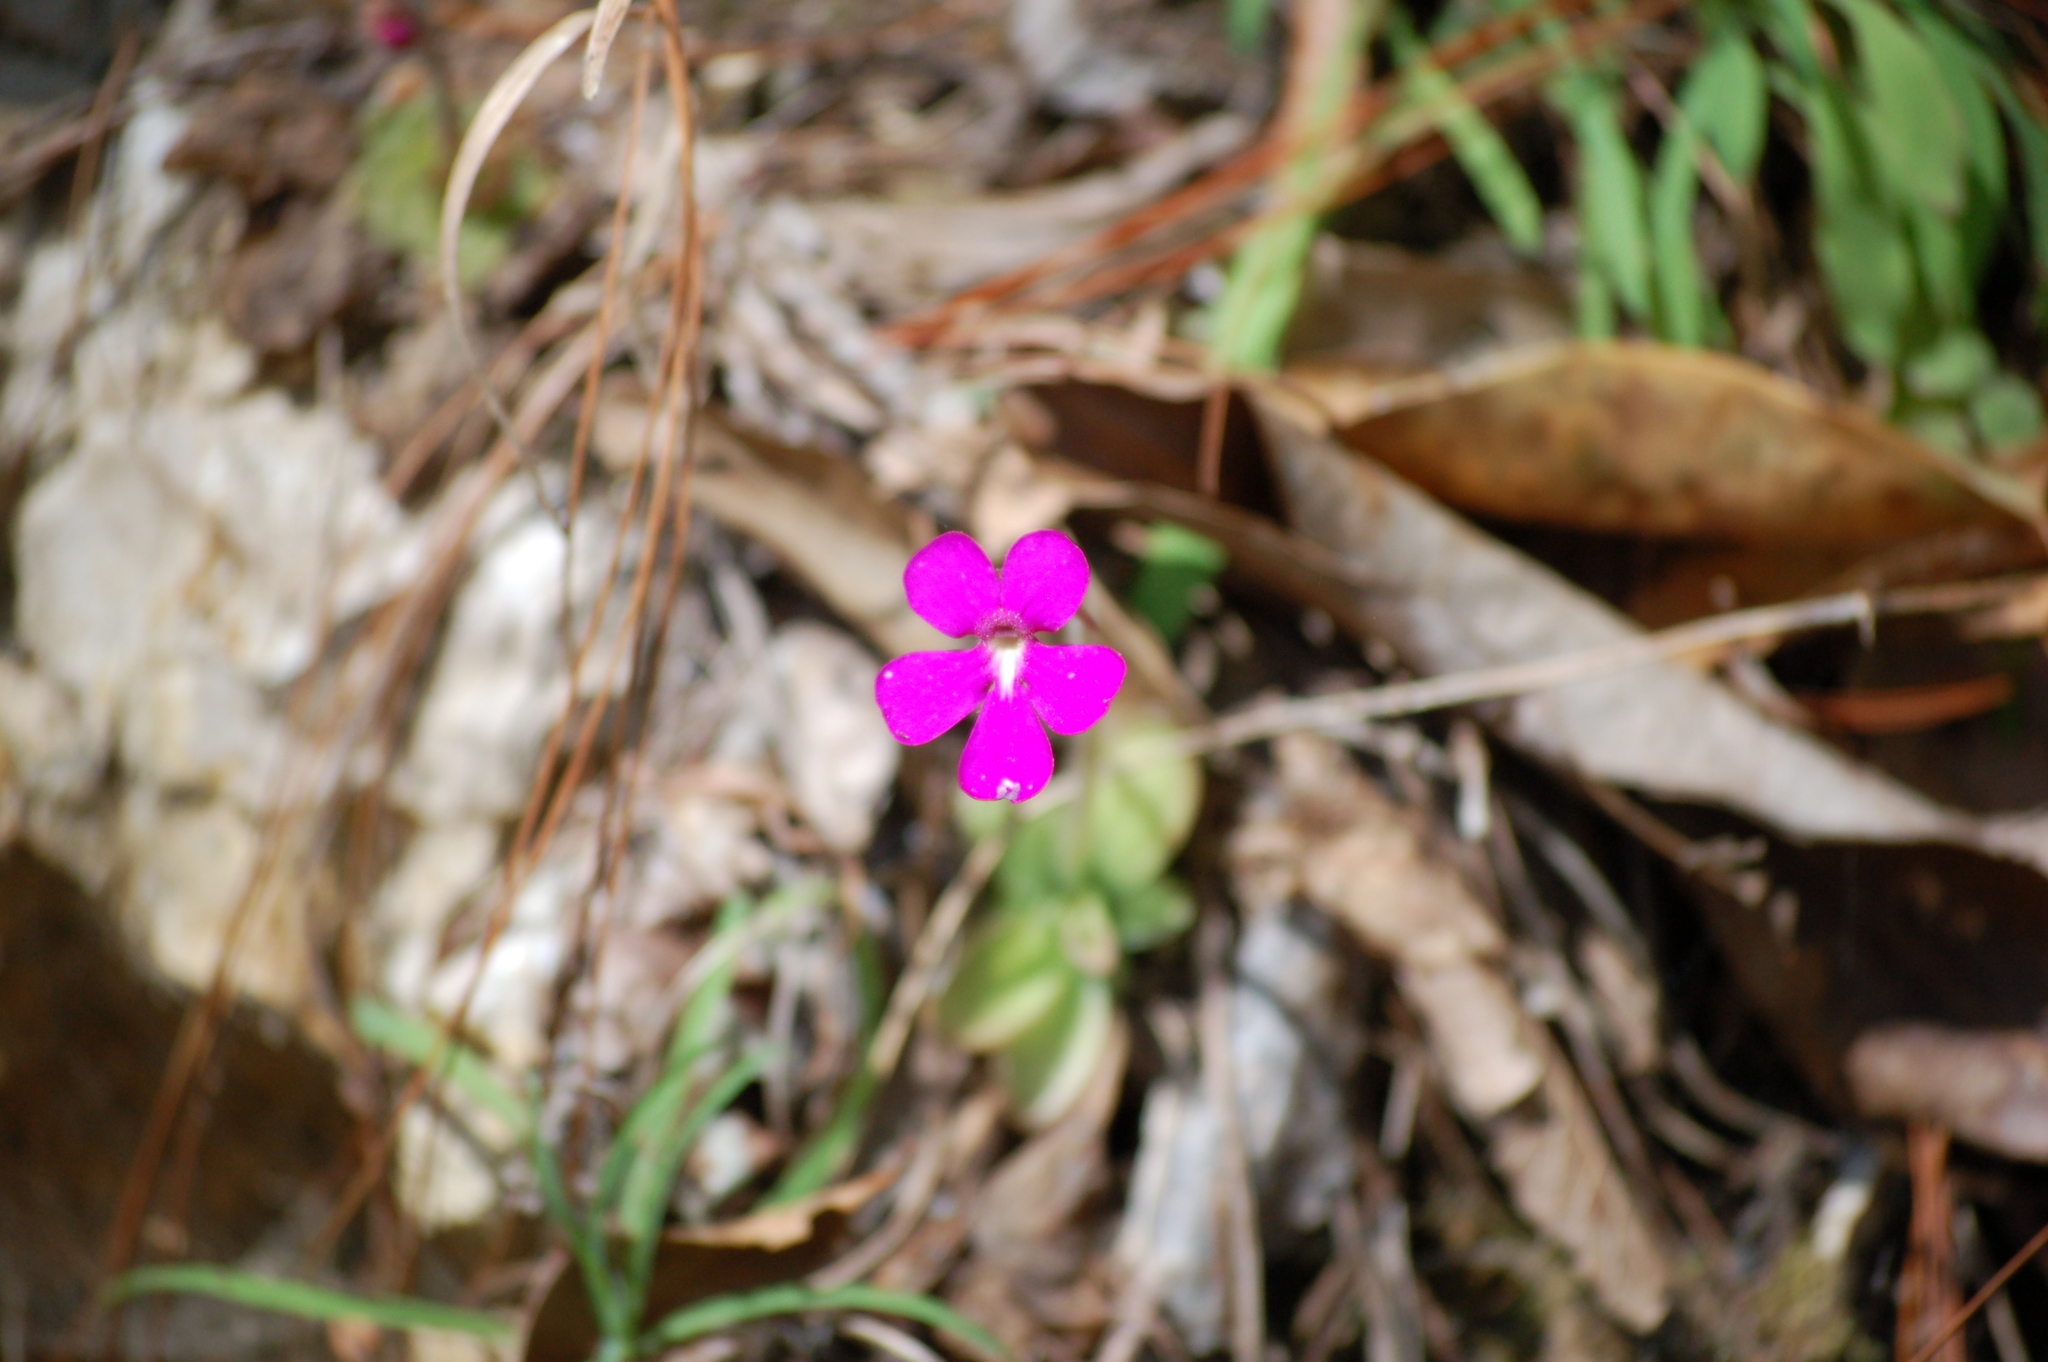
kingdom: Plantae
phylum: Tracheophyta
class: Magnoliopsida
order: Lamiales
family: Lentibulariaceae
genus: Pinguicula
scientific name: Pinguicula moranensis
